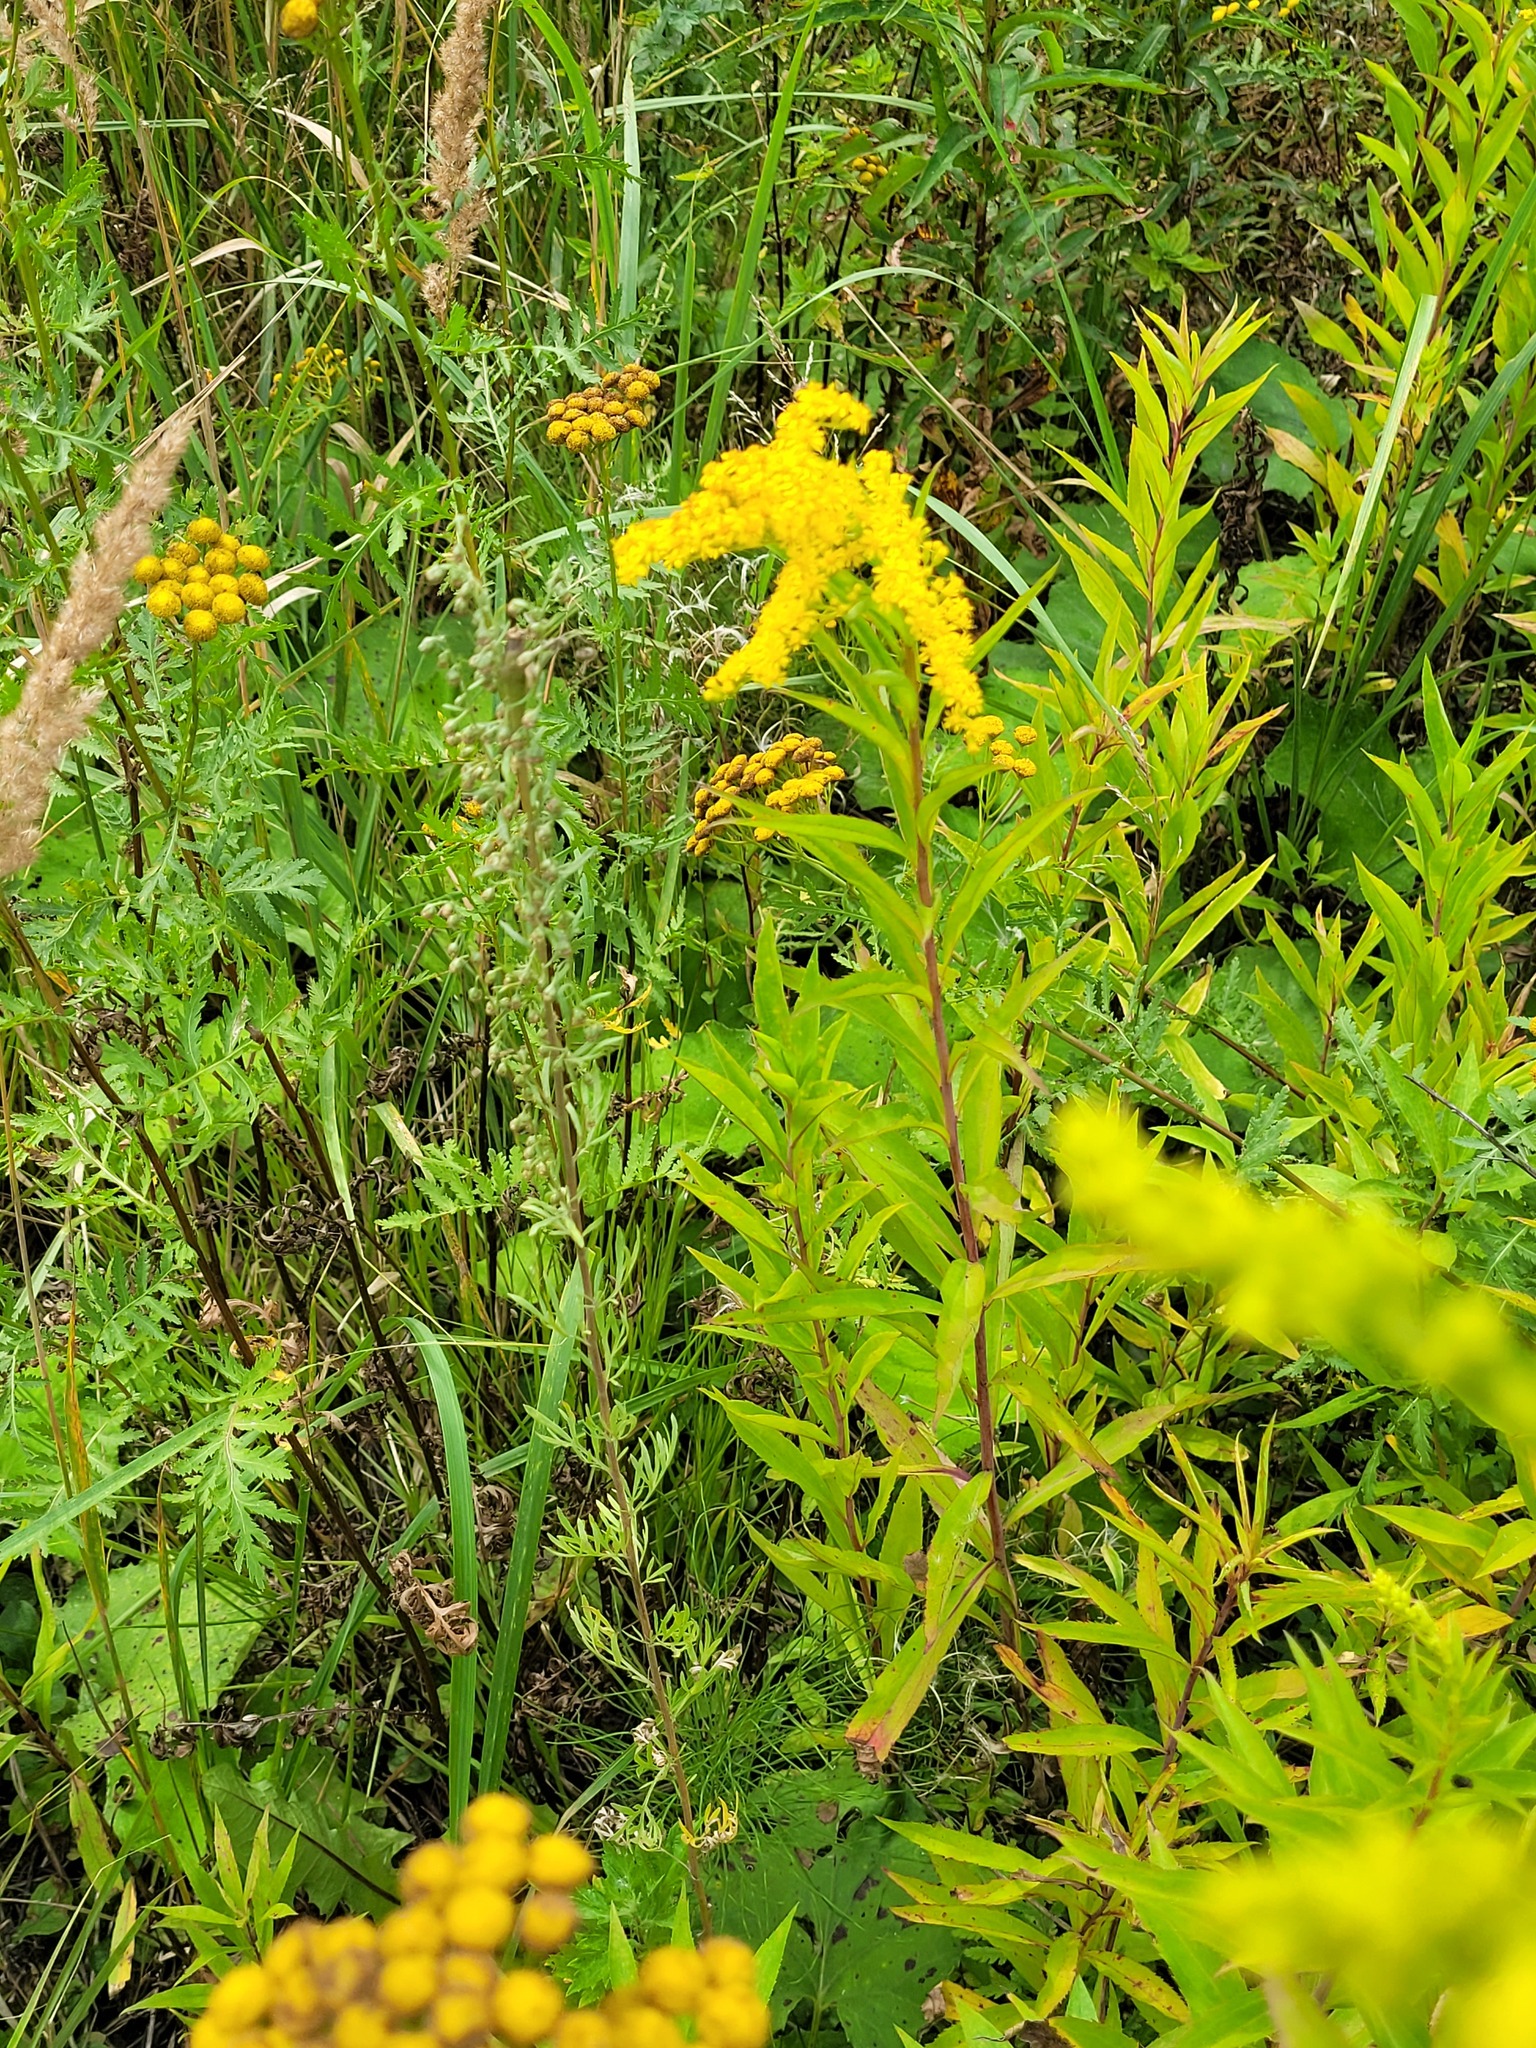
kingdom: Plantae
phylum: Tracheophyta
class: Magnoliopsida
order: Asterales
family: Asteraceae
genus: Artemisia
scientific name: Artemisia absinthium
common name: Wormwood
